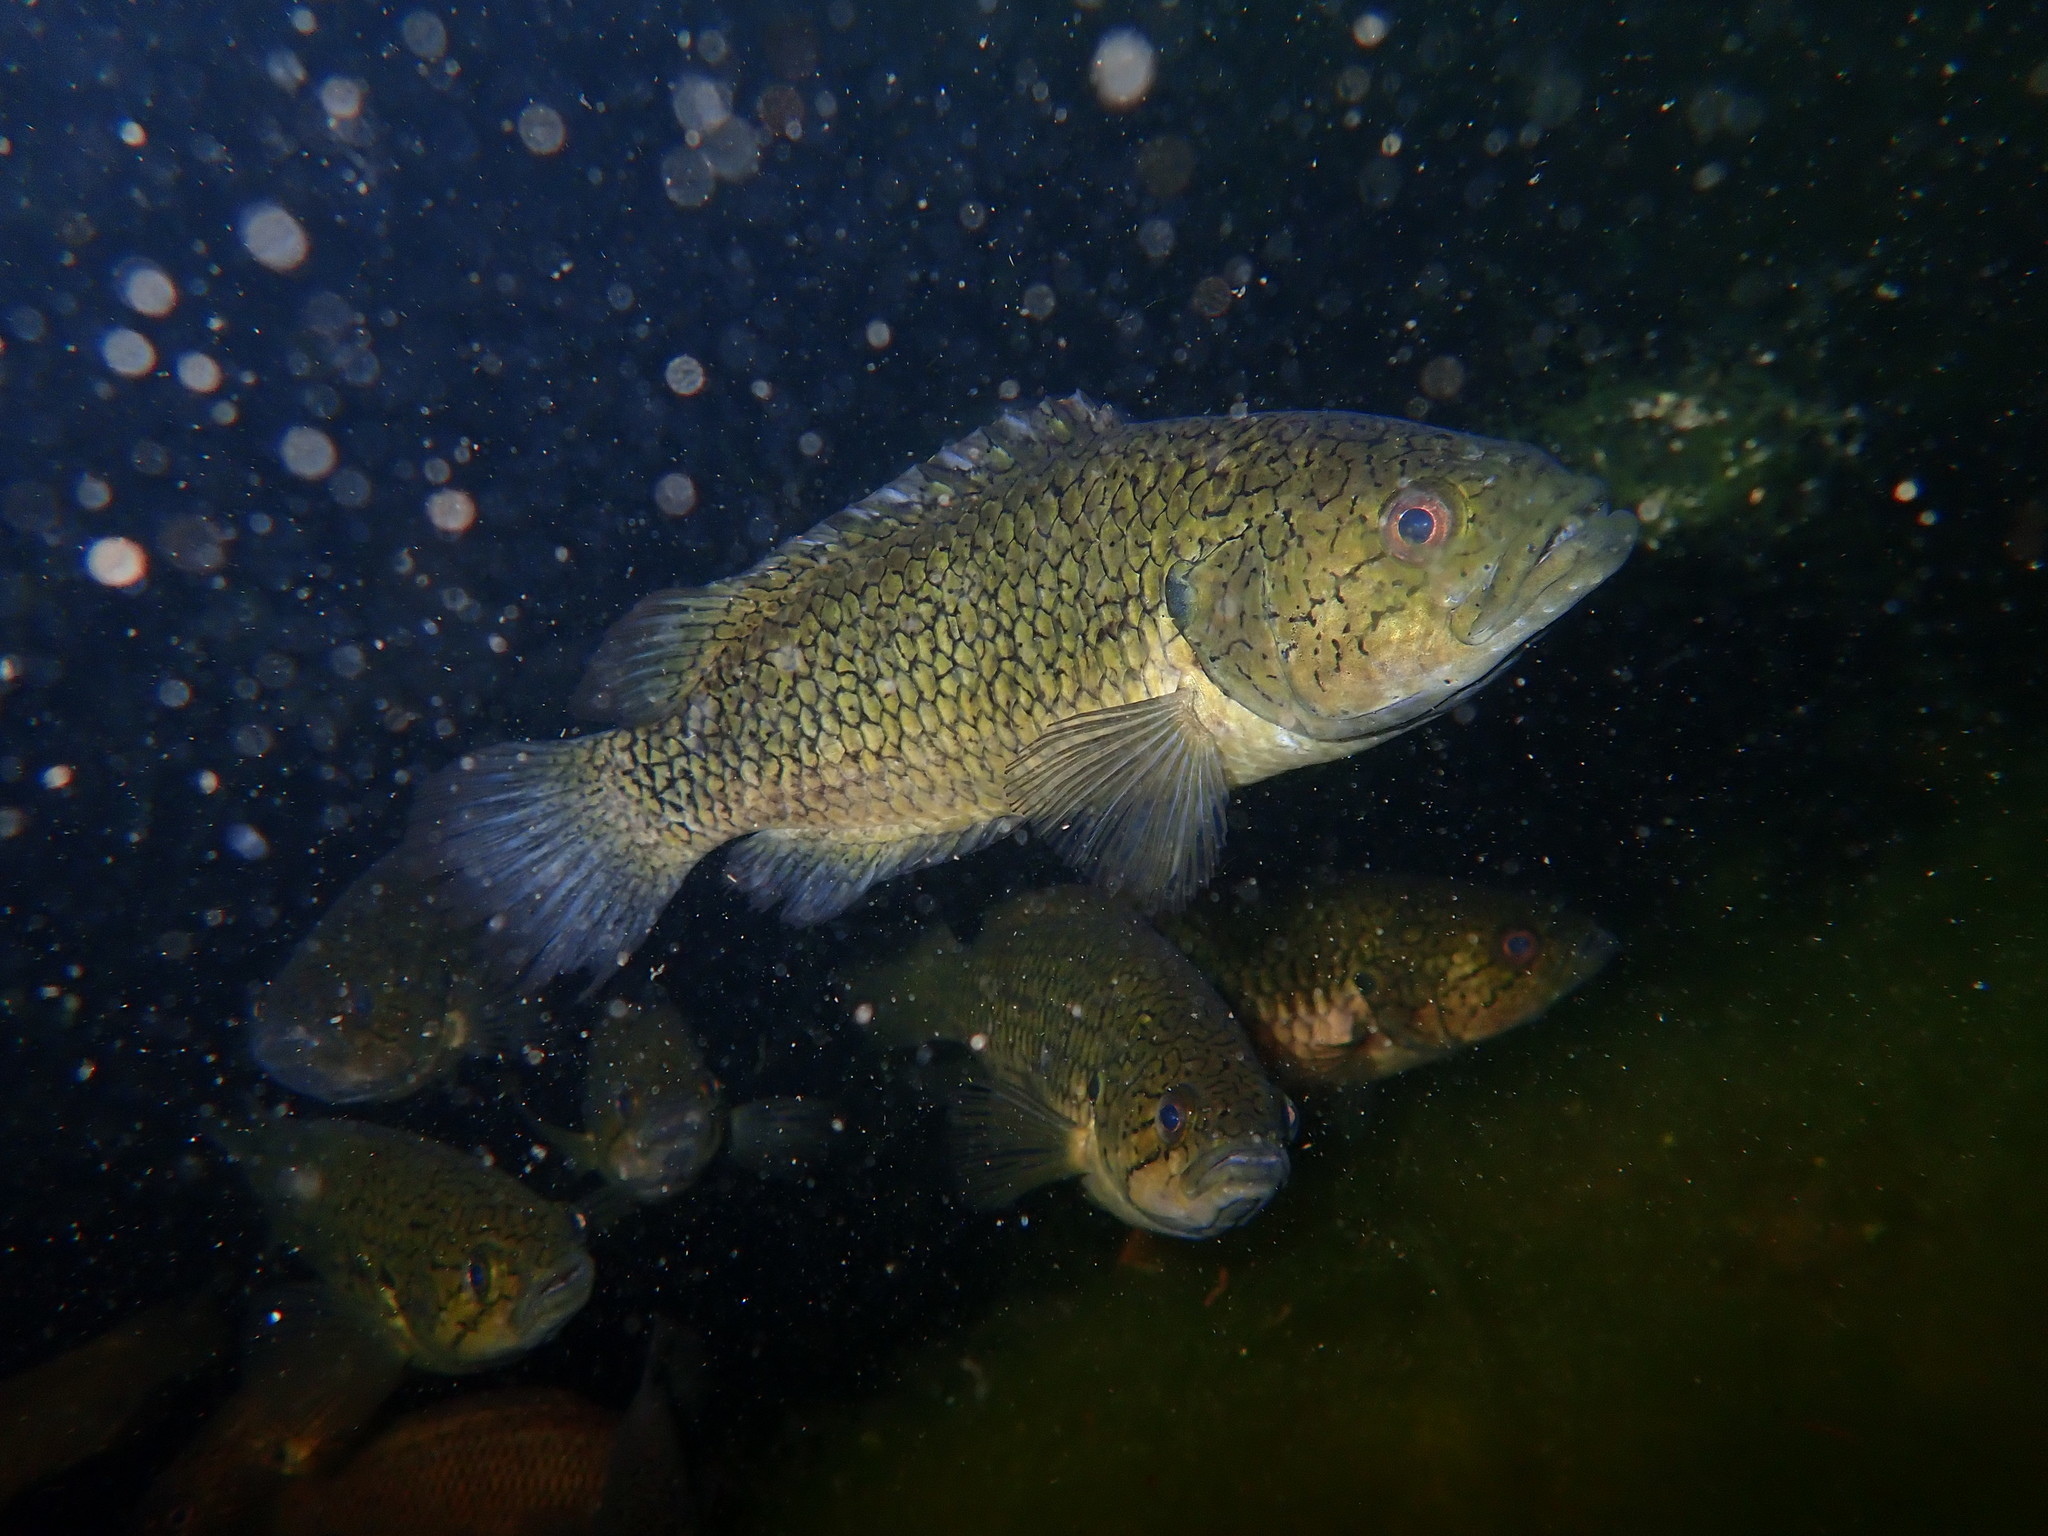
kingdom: Animalia
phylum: Chordata
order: Perciformes
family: Anabantidae
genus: Sandelia
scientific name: Sandelia capensis
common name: Cape kurper
